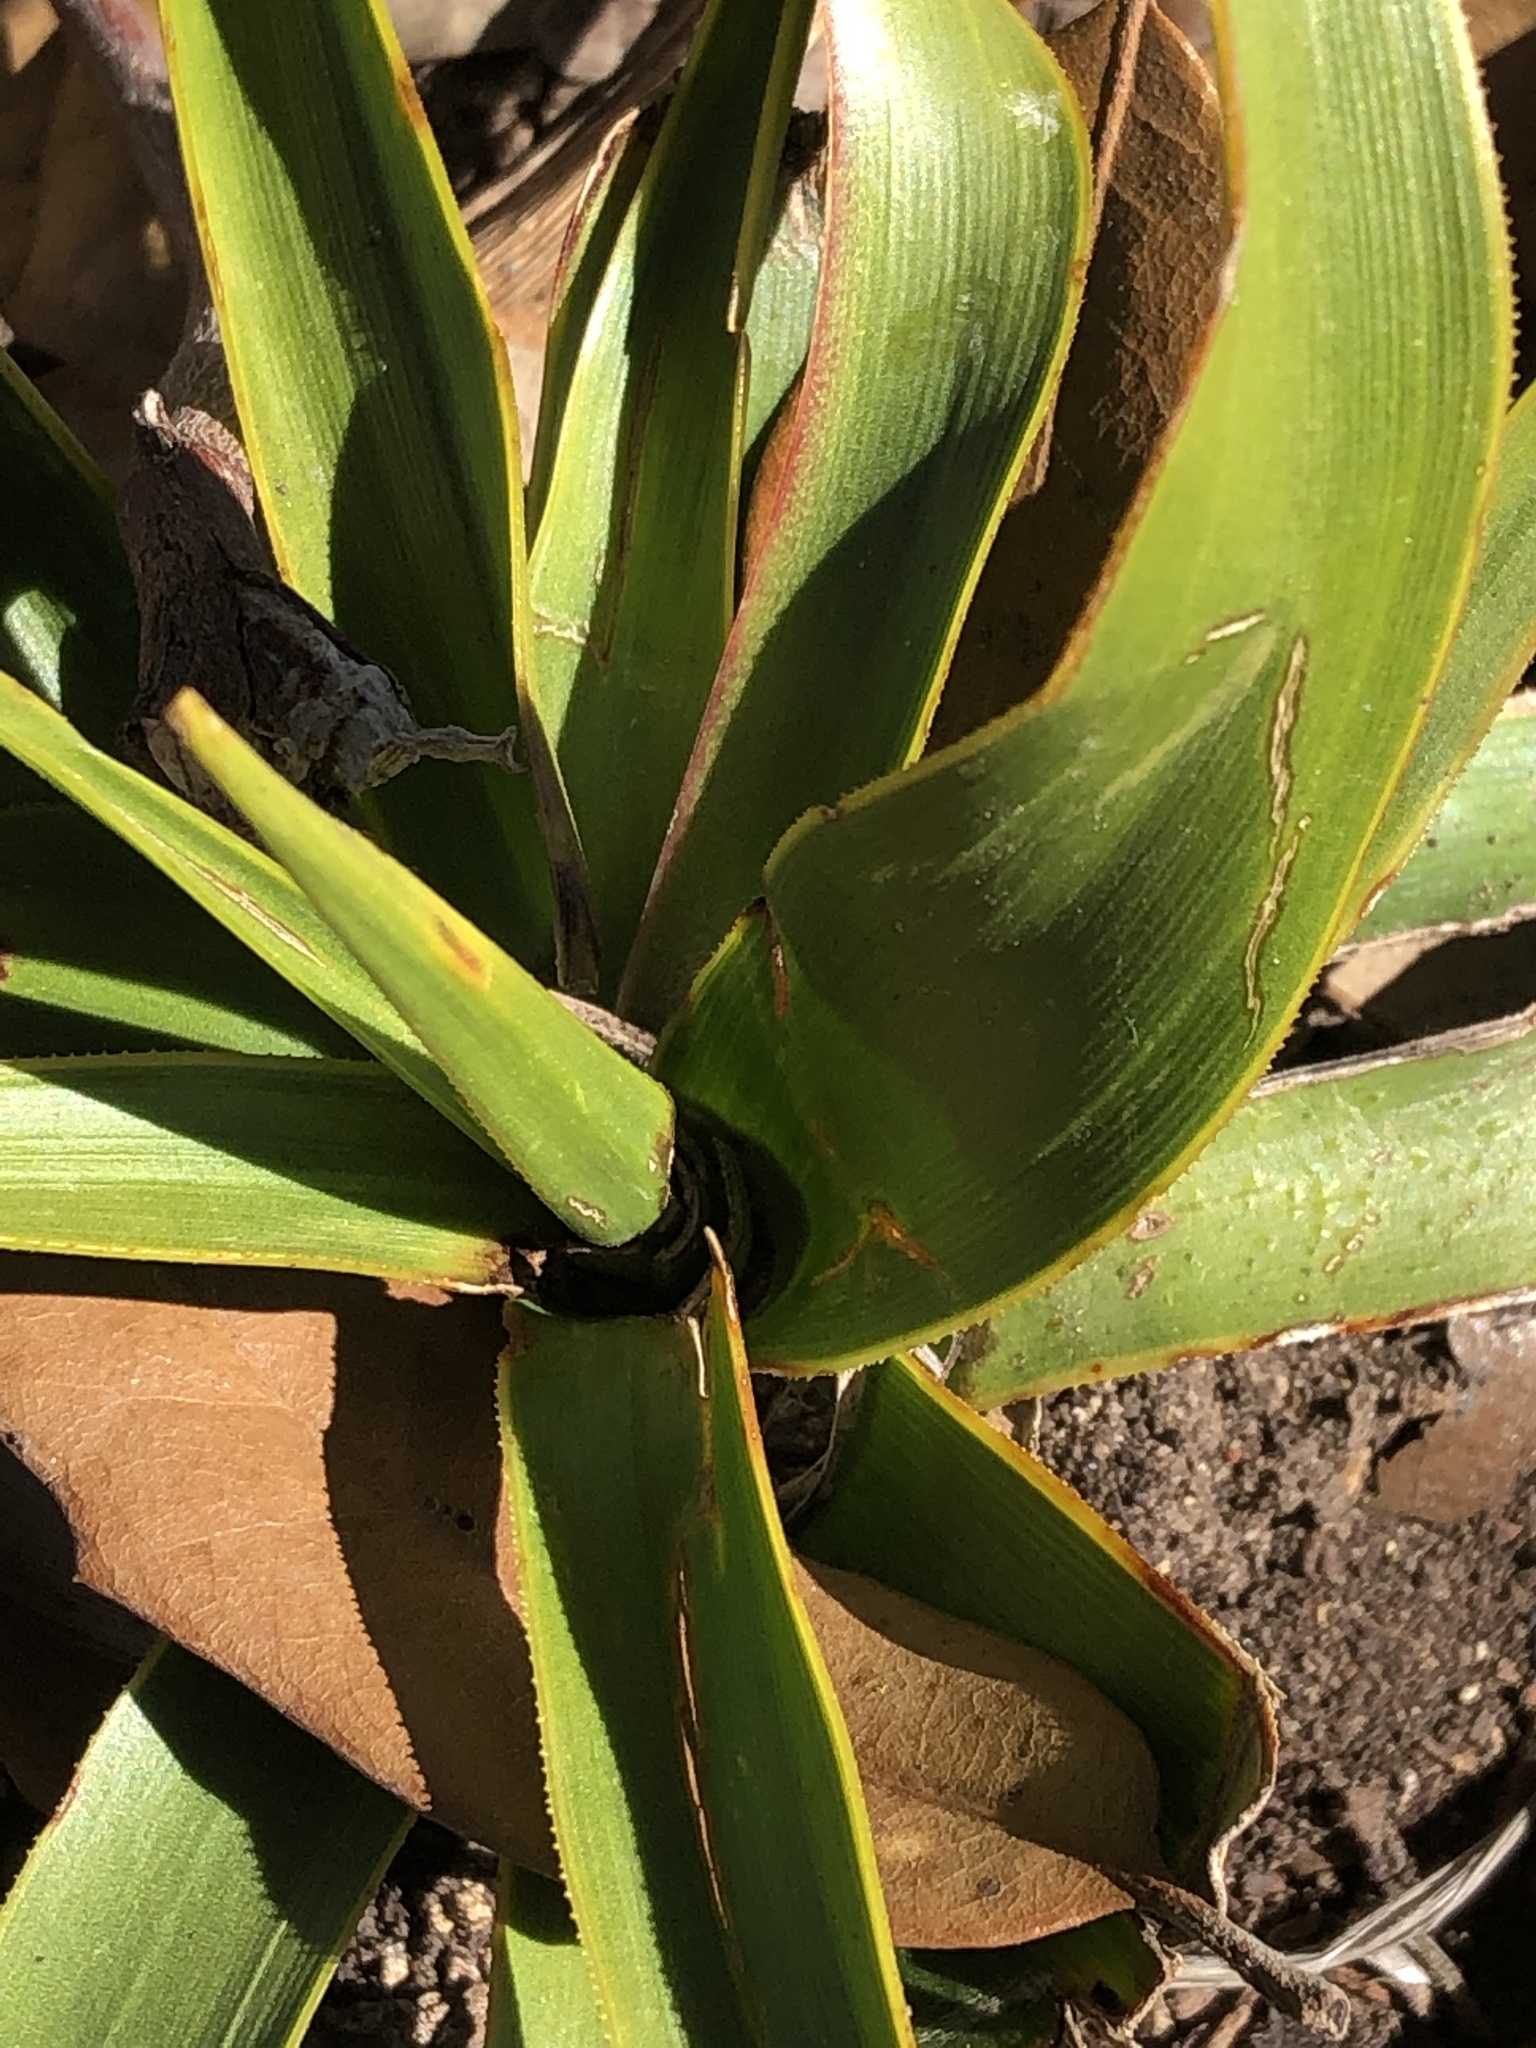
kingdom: Plantae
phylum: Tracheophyta
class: Liliopsida
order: Asparagales
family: Asparagaceae
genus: Yucca
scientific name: Yucca rupicola
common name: Twisted-leaf spanish-dagger
